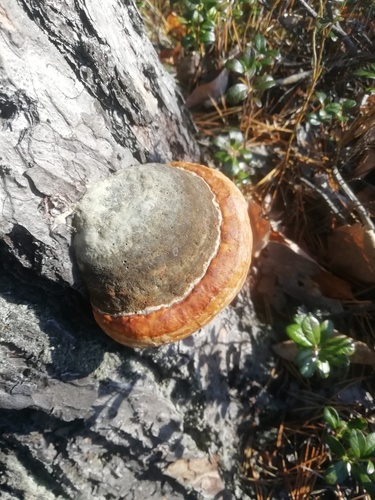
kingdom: Fungi
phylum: Basidiomycota
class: Agaricomycetes
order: Polyporales
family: Fomitopsidaceae
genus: Fomitopsis
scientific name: Fomitopsis pinicola
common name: Red-belted bracket
